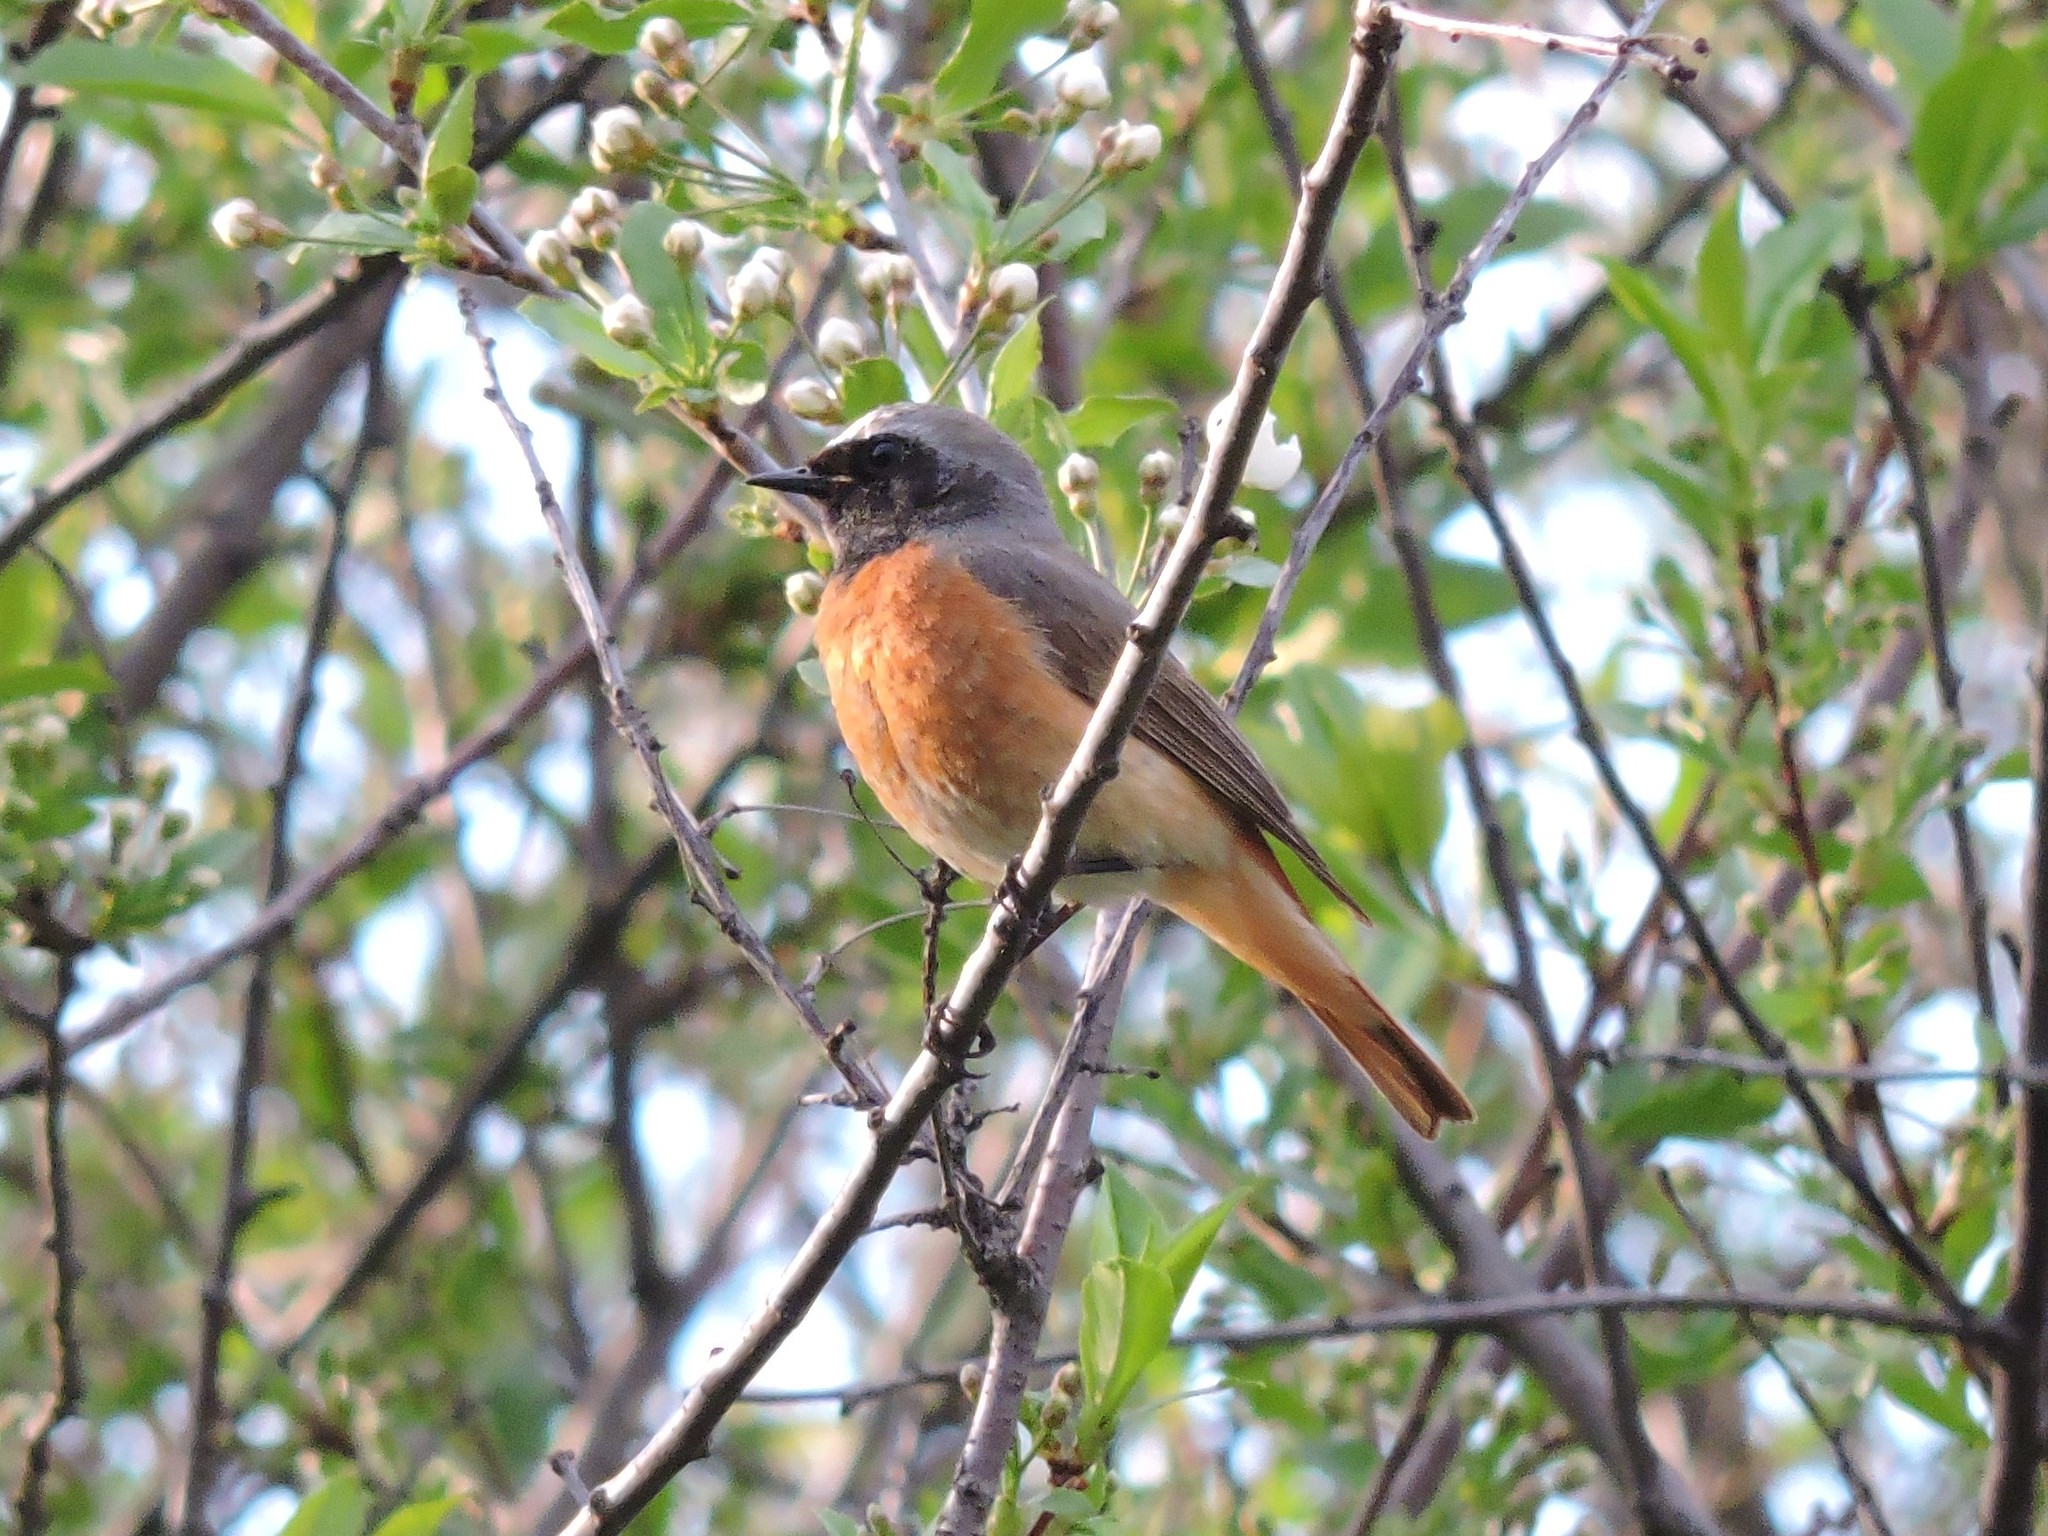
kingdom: Animalia
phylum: Chordata
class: Aves
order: Passeriformes
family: Muscicapidae
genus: Phoenicurus
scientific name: Phoenicurus phoenicurus
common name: Common redstart
